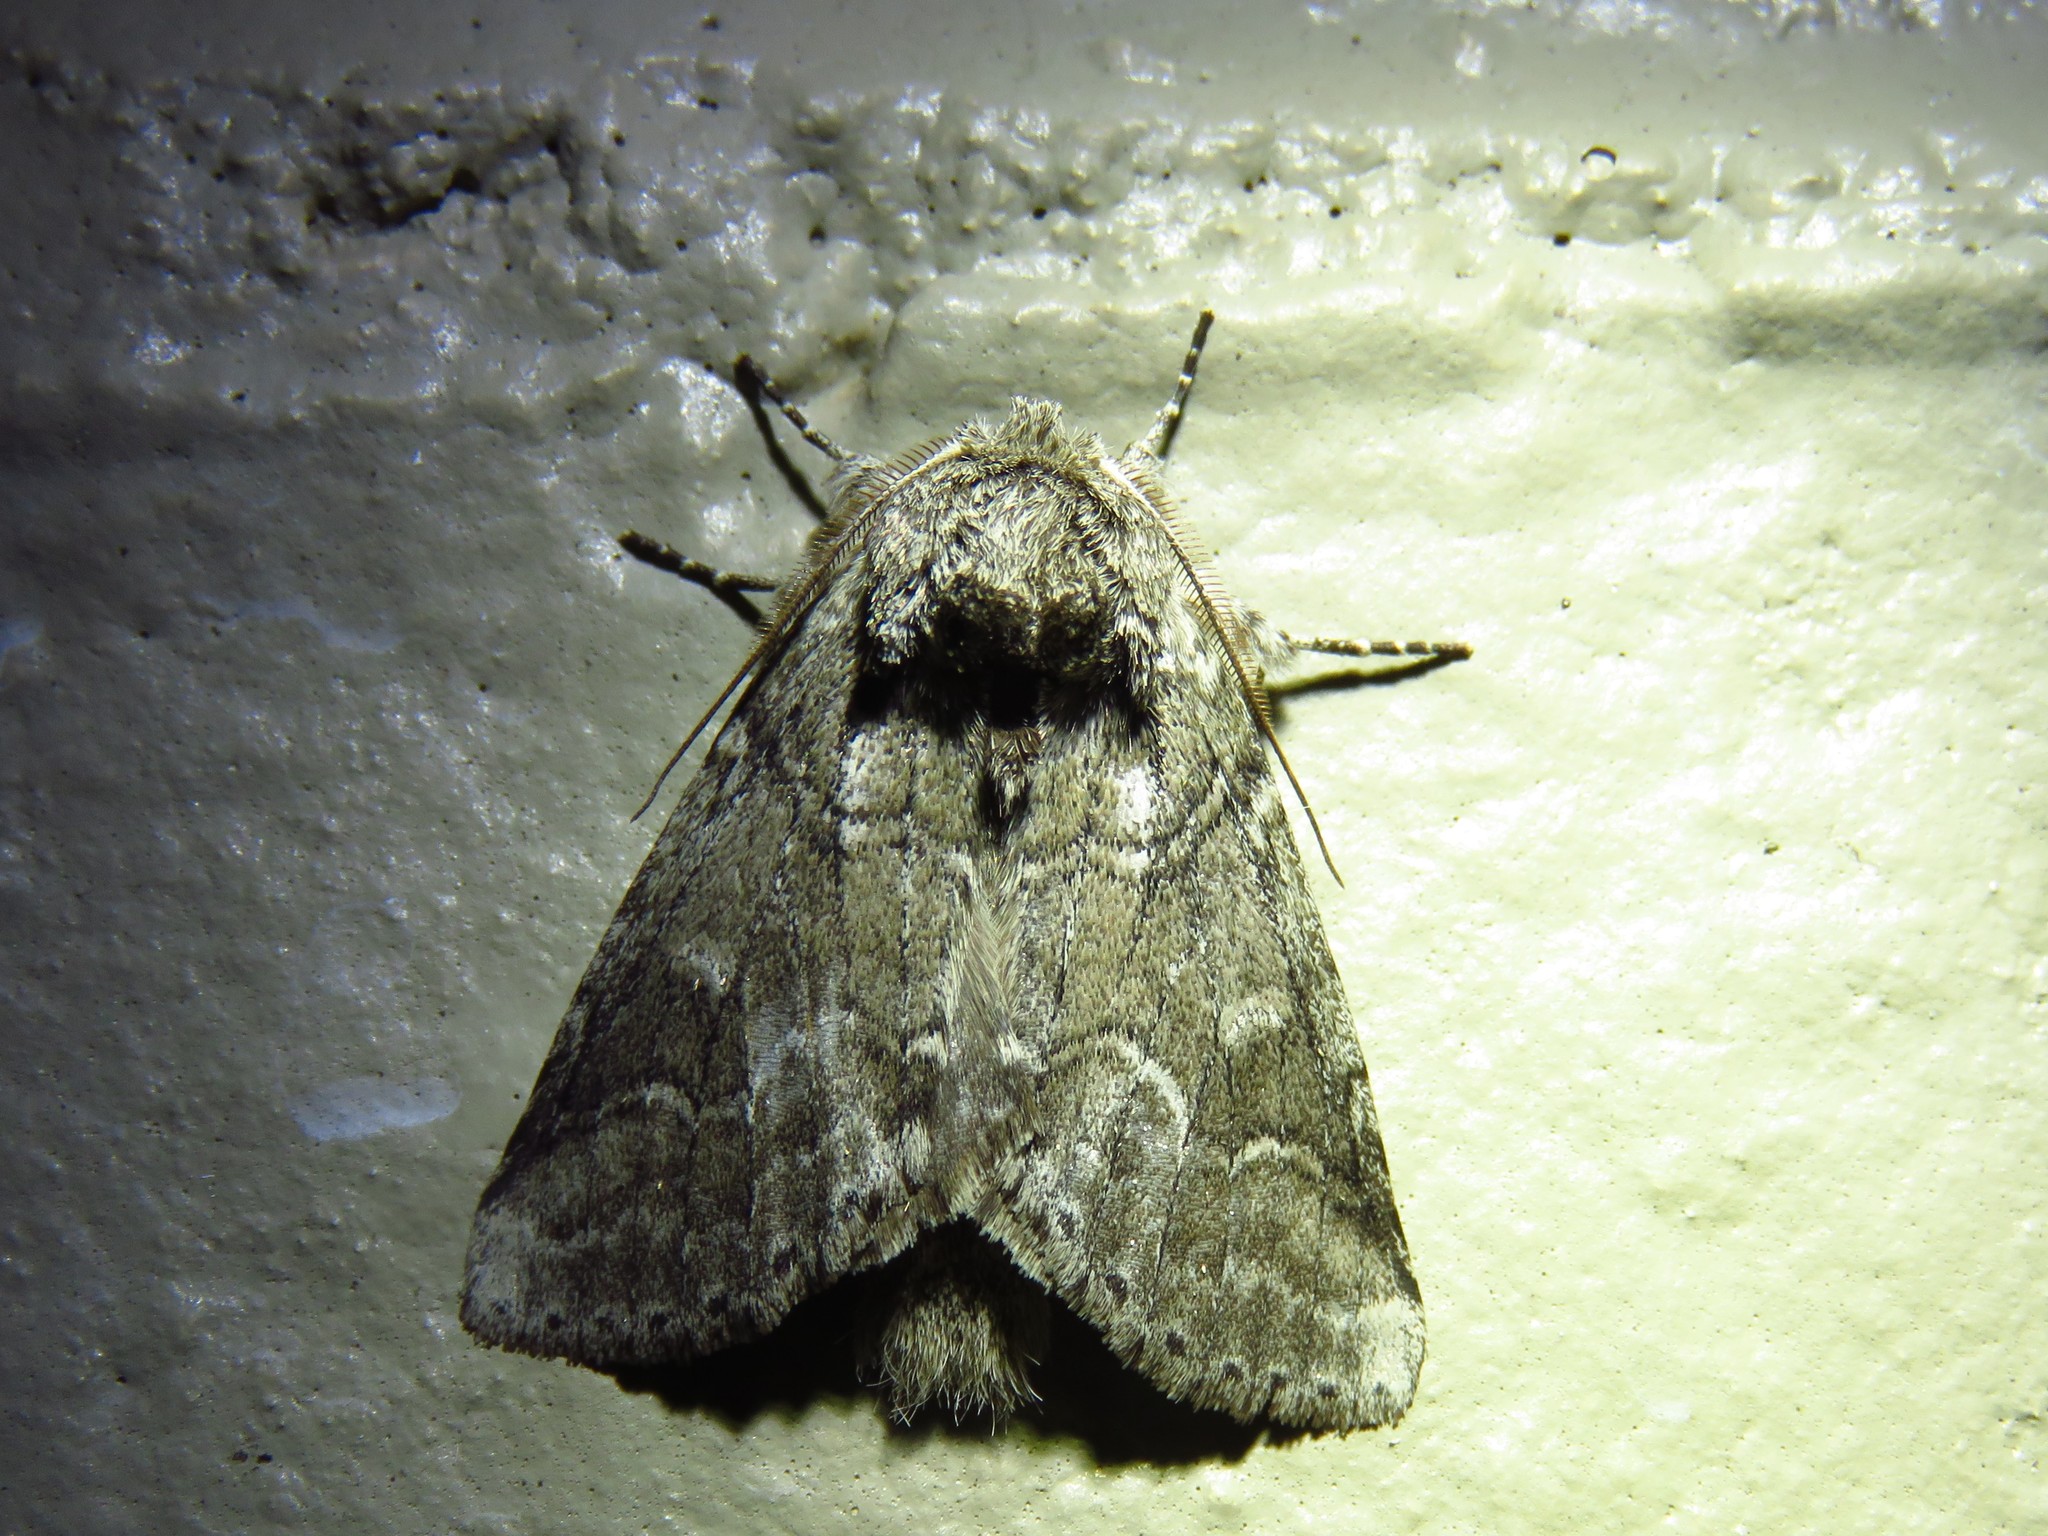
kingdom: Animalia
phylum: Arthropoda
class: Insecta
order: Lepidoptera
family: Notodontidae
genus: Lochmaeus
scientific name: Lochmaeus bilineata
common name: Double-lined prominent
